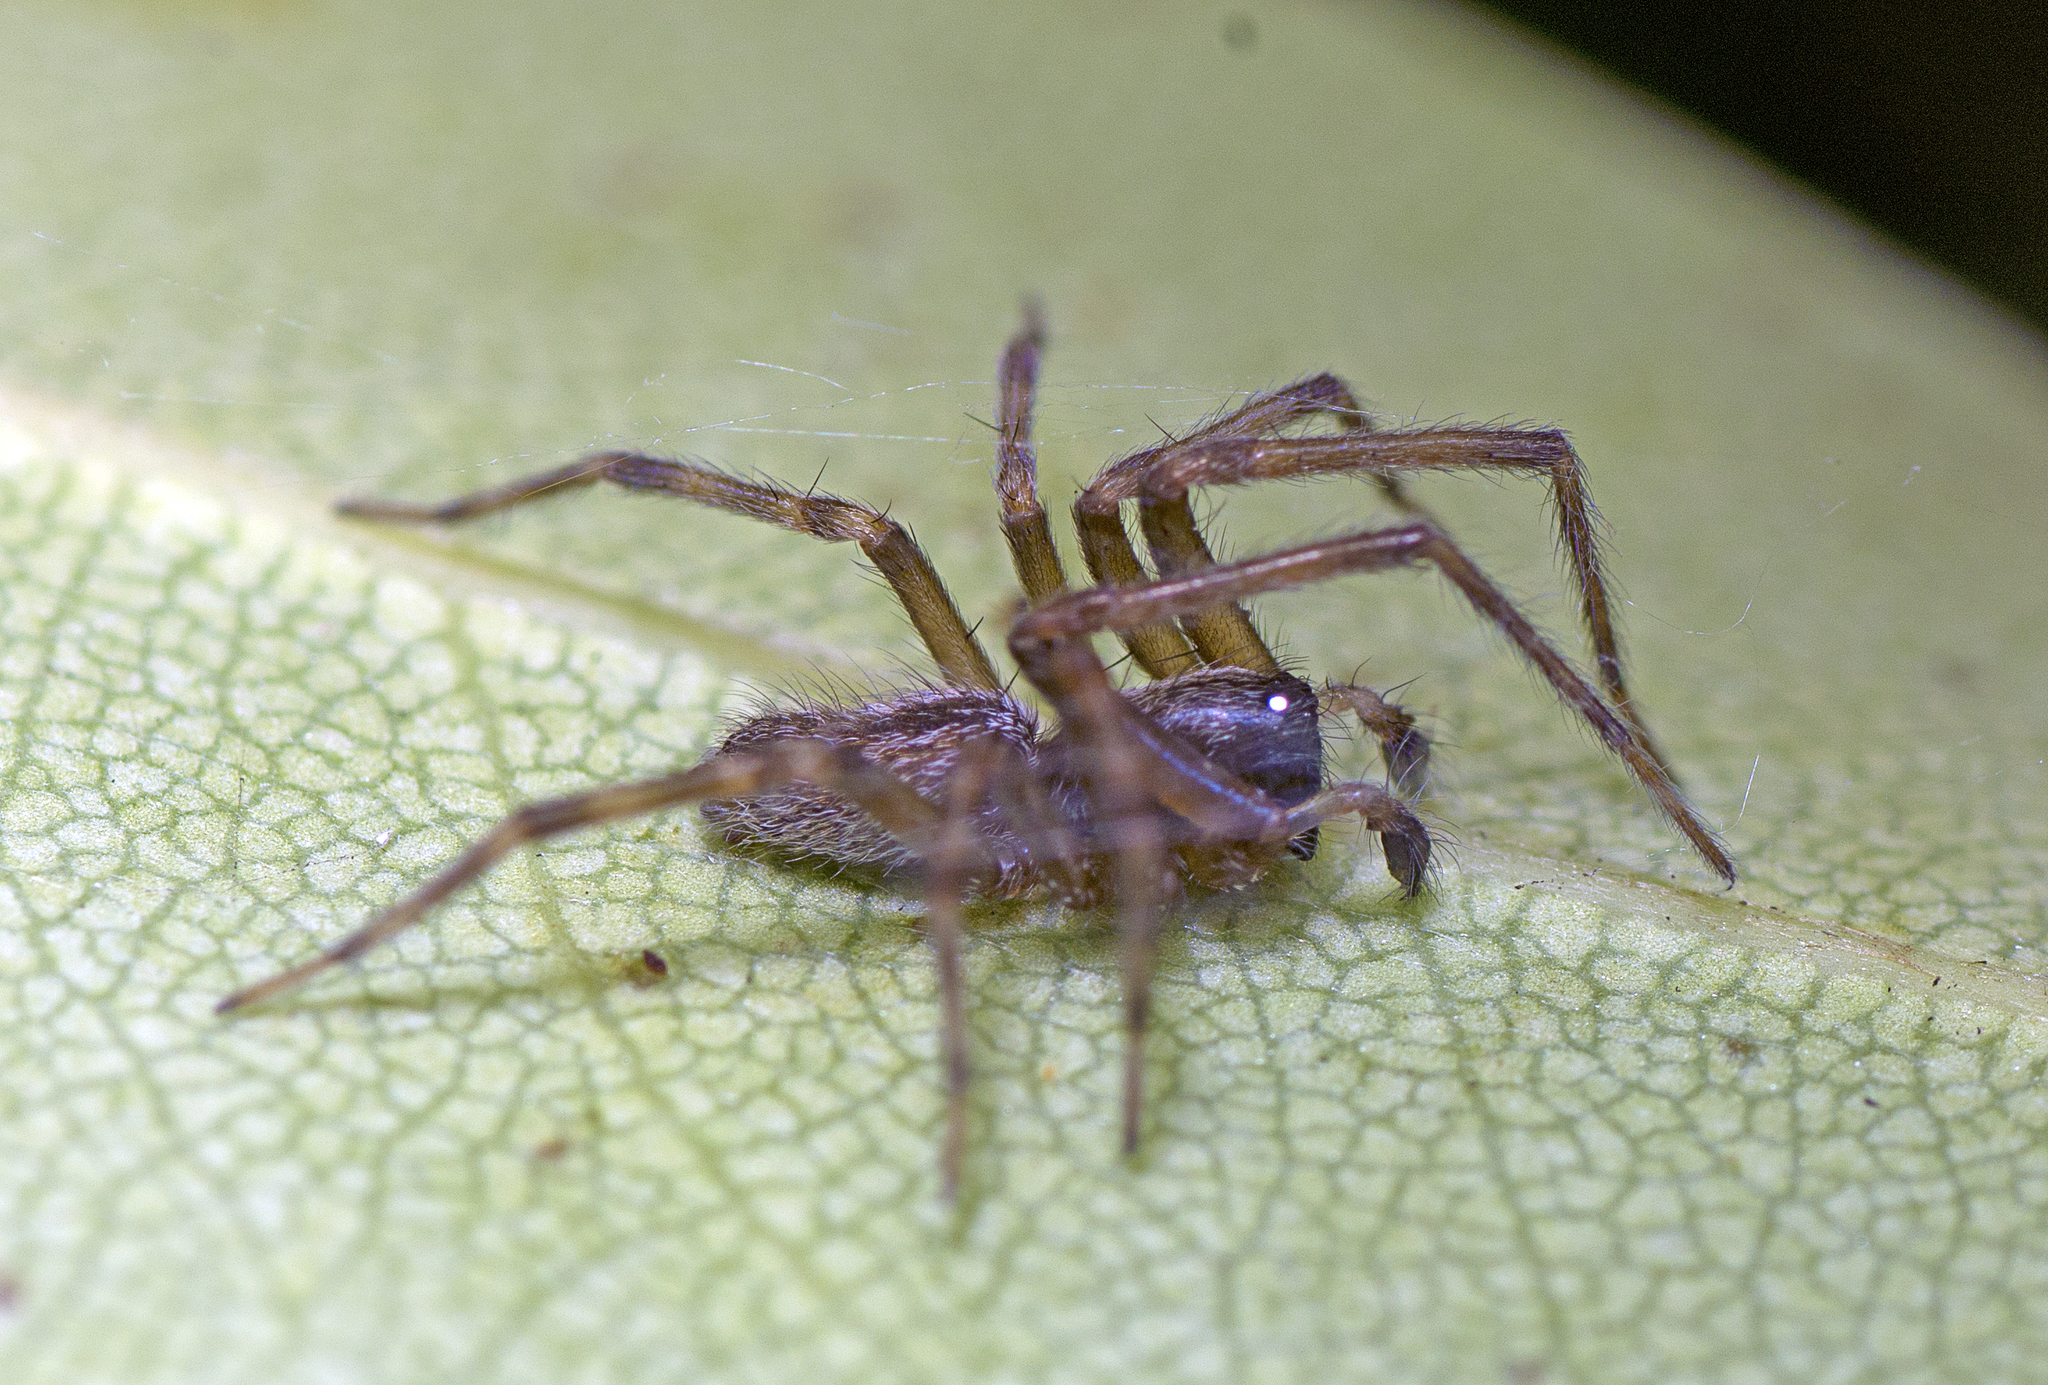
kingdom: Animalia
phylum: Arthropoda
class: Arachnida
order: Araneae
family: Desidae
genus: Badumna
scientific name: Badumna longinqua
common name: Gray house spider
